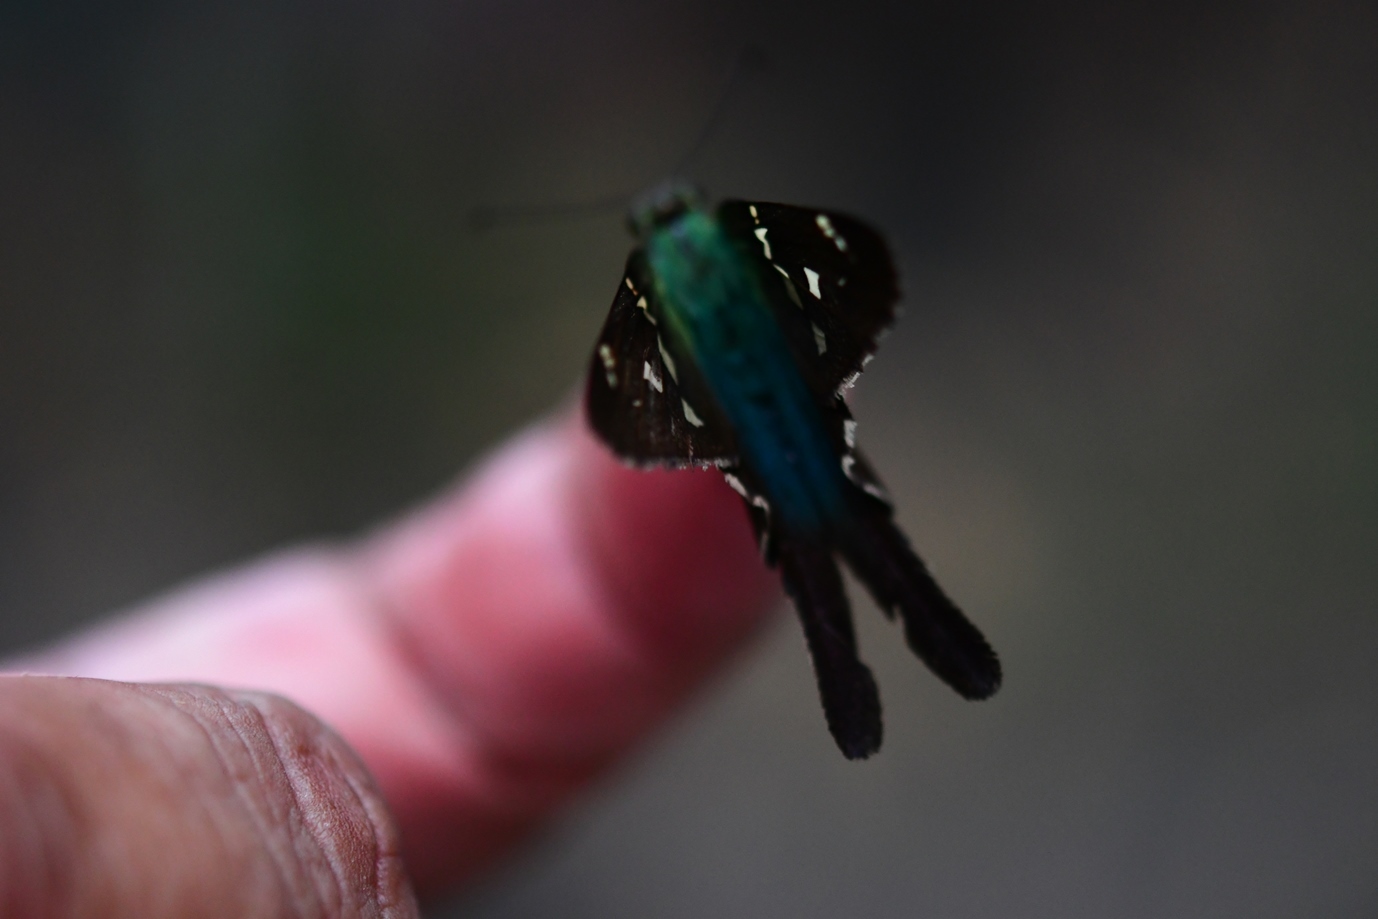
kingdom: Animalia
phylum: Arthropoda
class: Insecta
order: Lepidoptera
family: Hesperiidae
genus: Urbanus
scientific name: Urbanus proteus
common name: Long-tailed skipper
